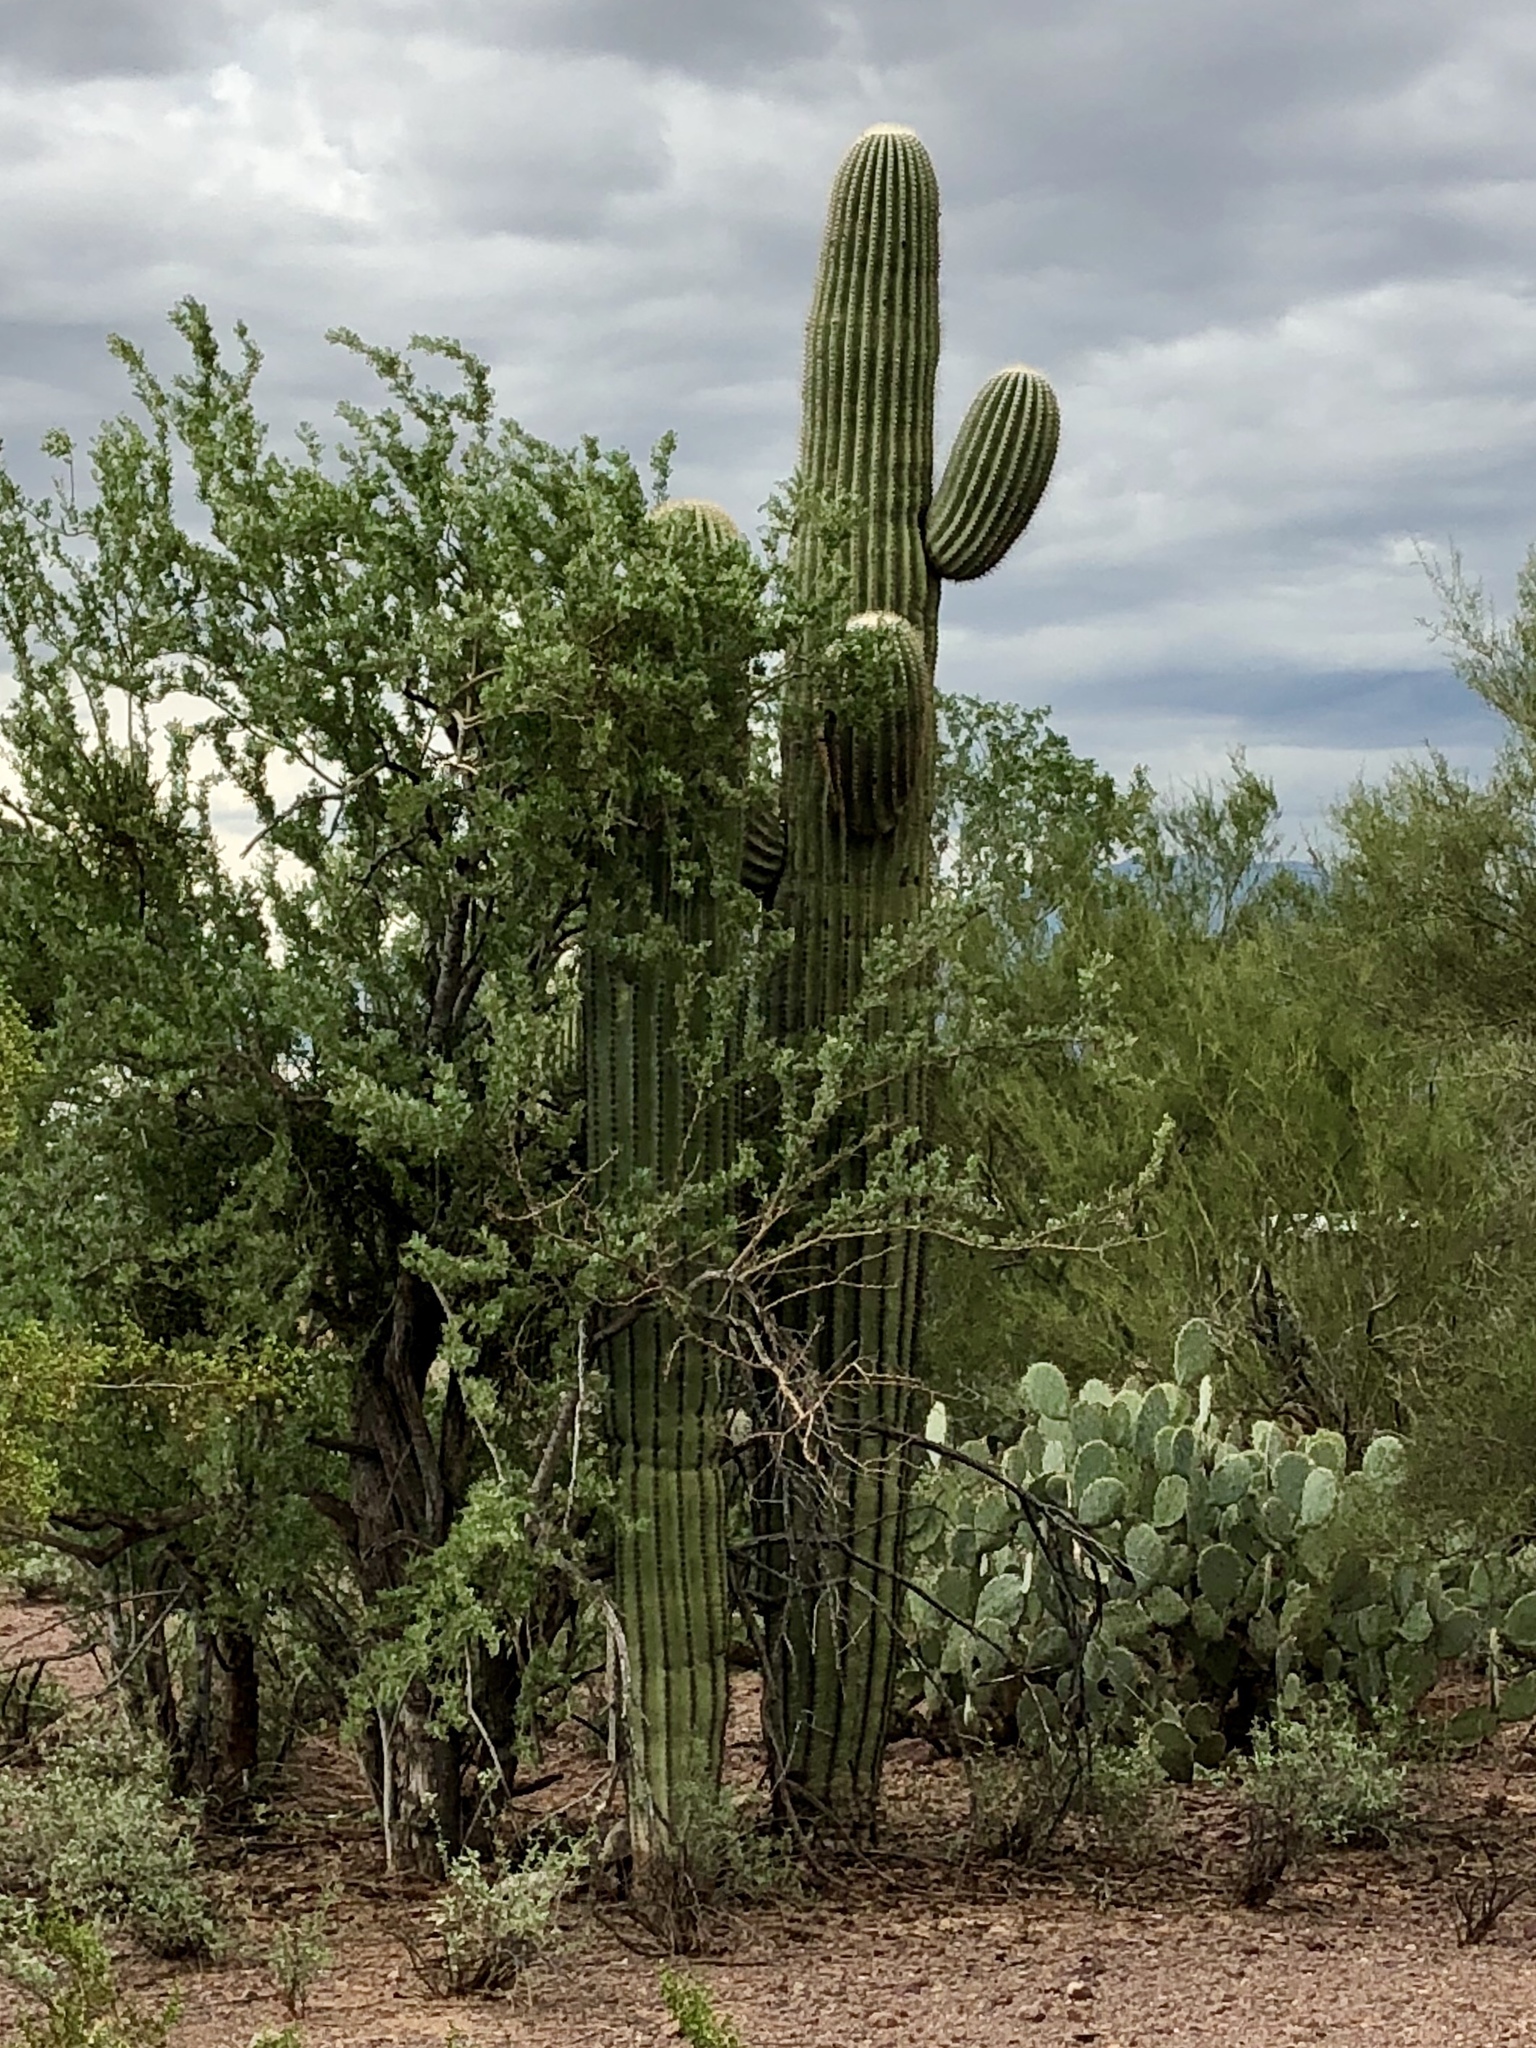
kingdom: Plantae
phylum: Tracheophyta
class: Magnoliopsida
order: Caryophyllales
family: Cactaceae
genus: Carnegiea
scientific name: Carnegiea gigantea
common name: Saguaro
